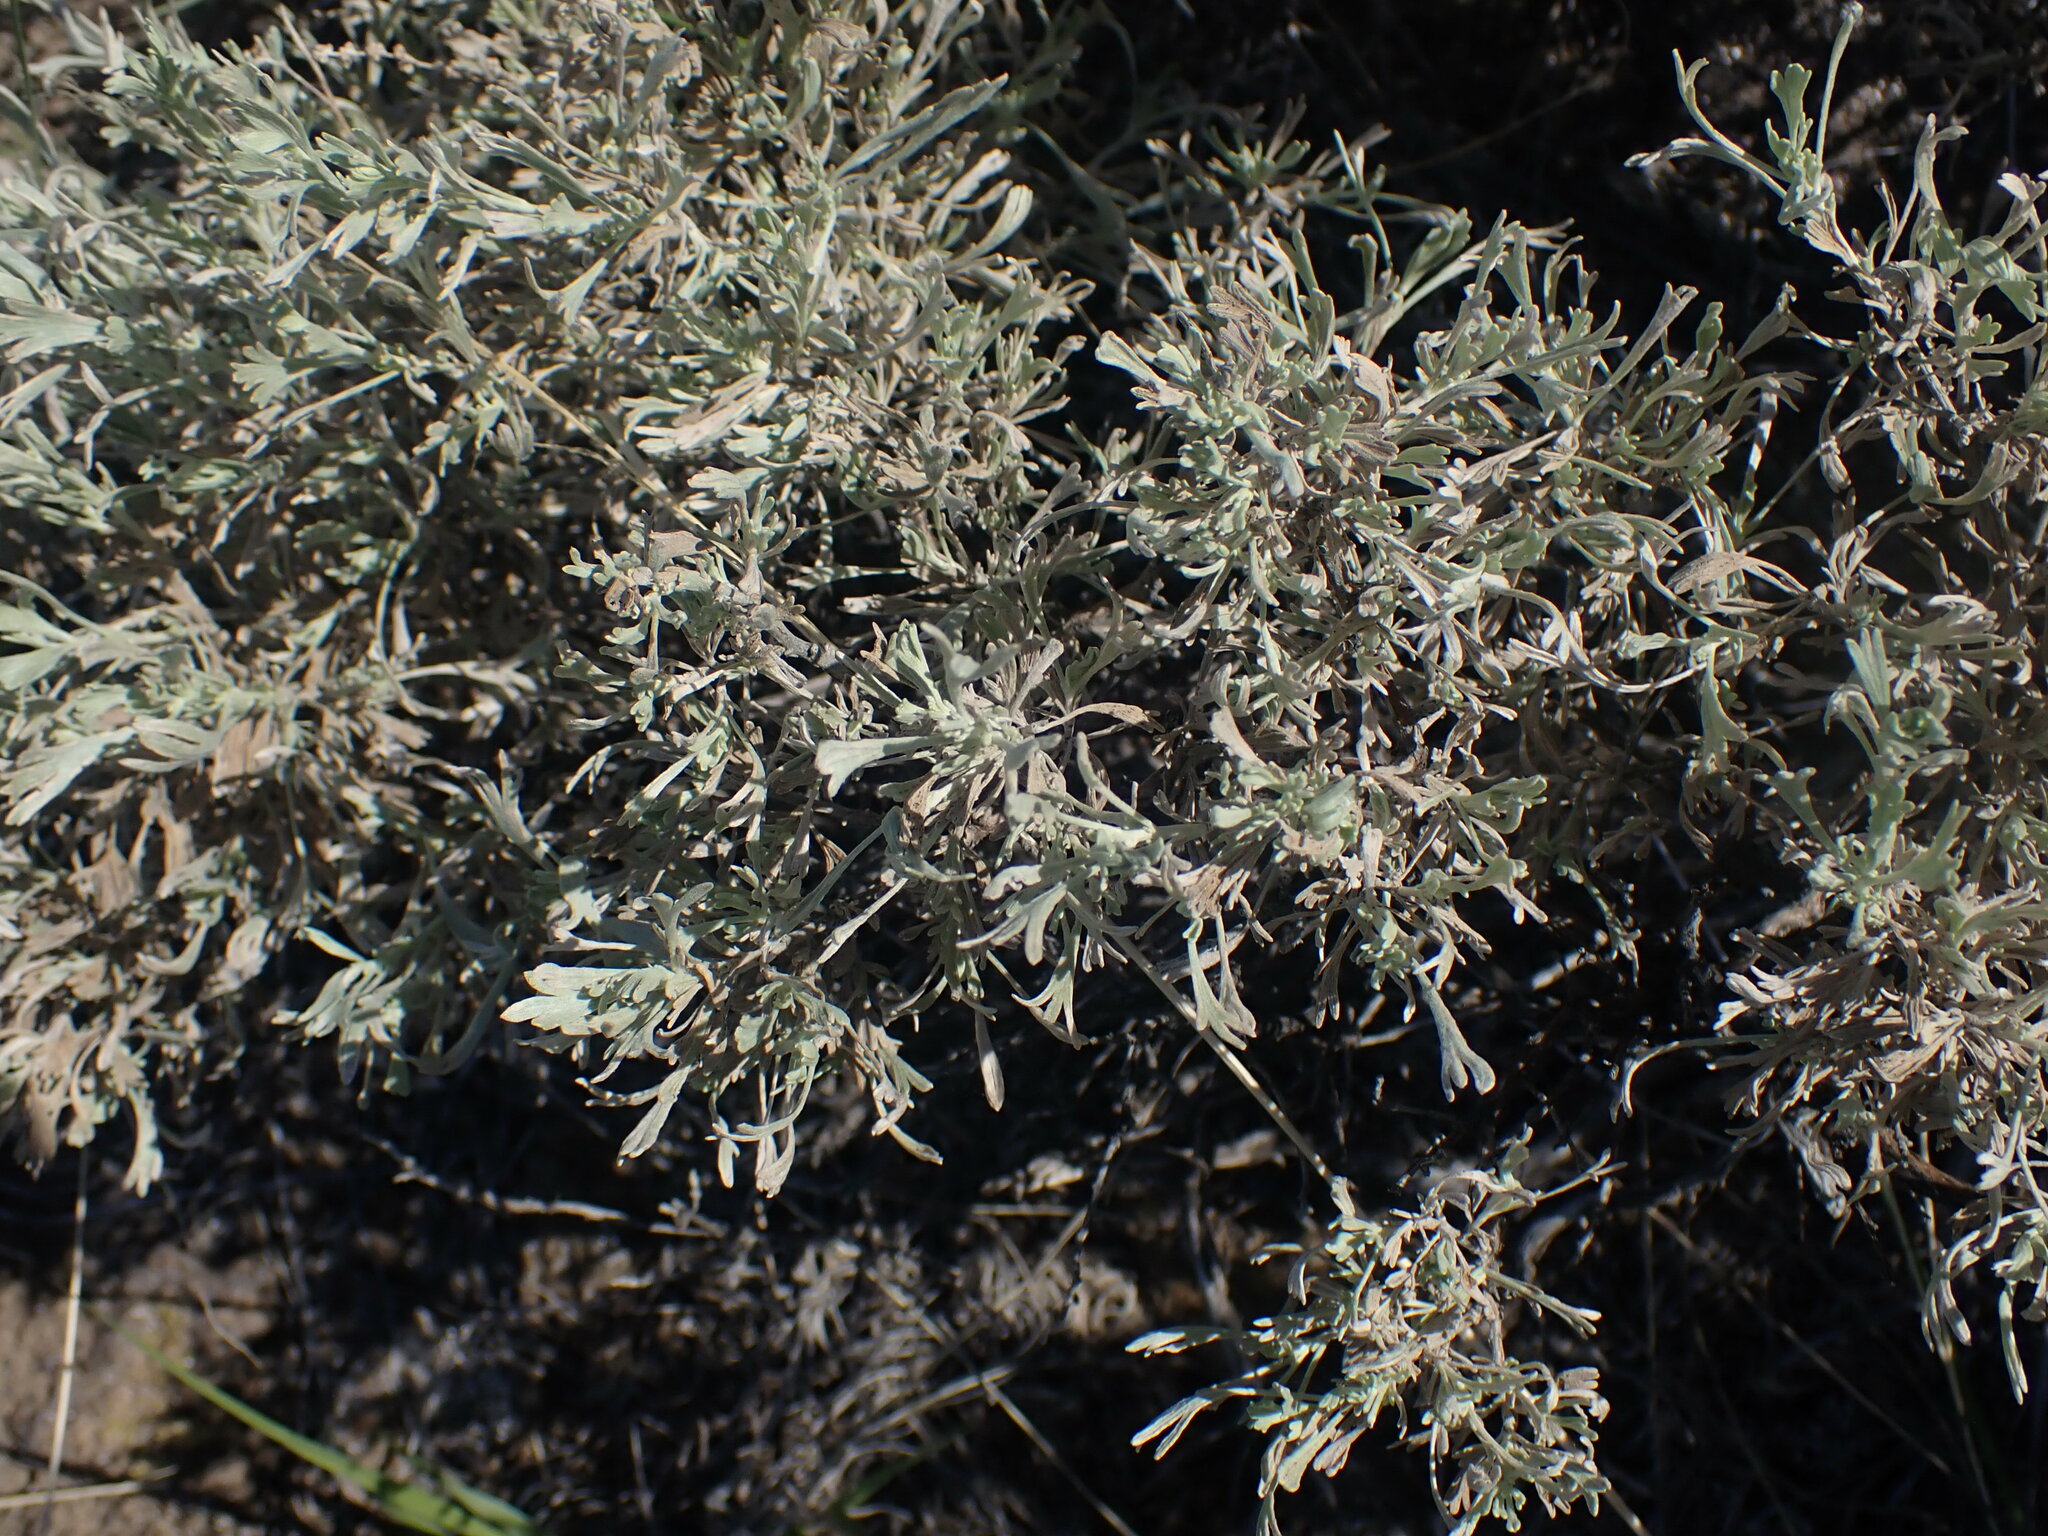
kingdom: Plantae
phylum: Tracheophyta
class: Magnoliopsida
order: Asterales
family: Asteraceae
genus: Artemisia
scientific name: Artemisia tridentata
